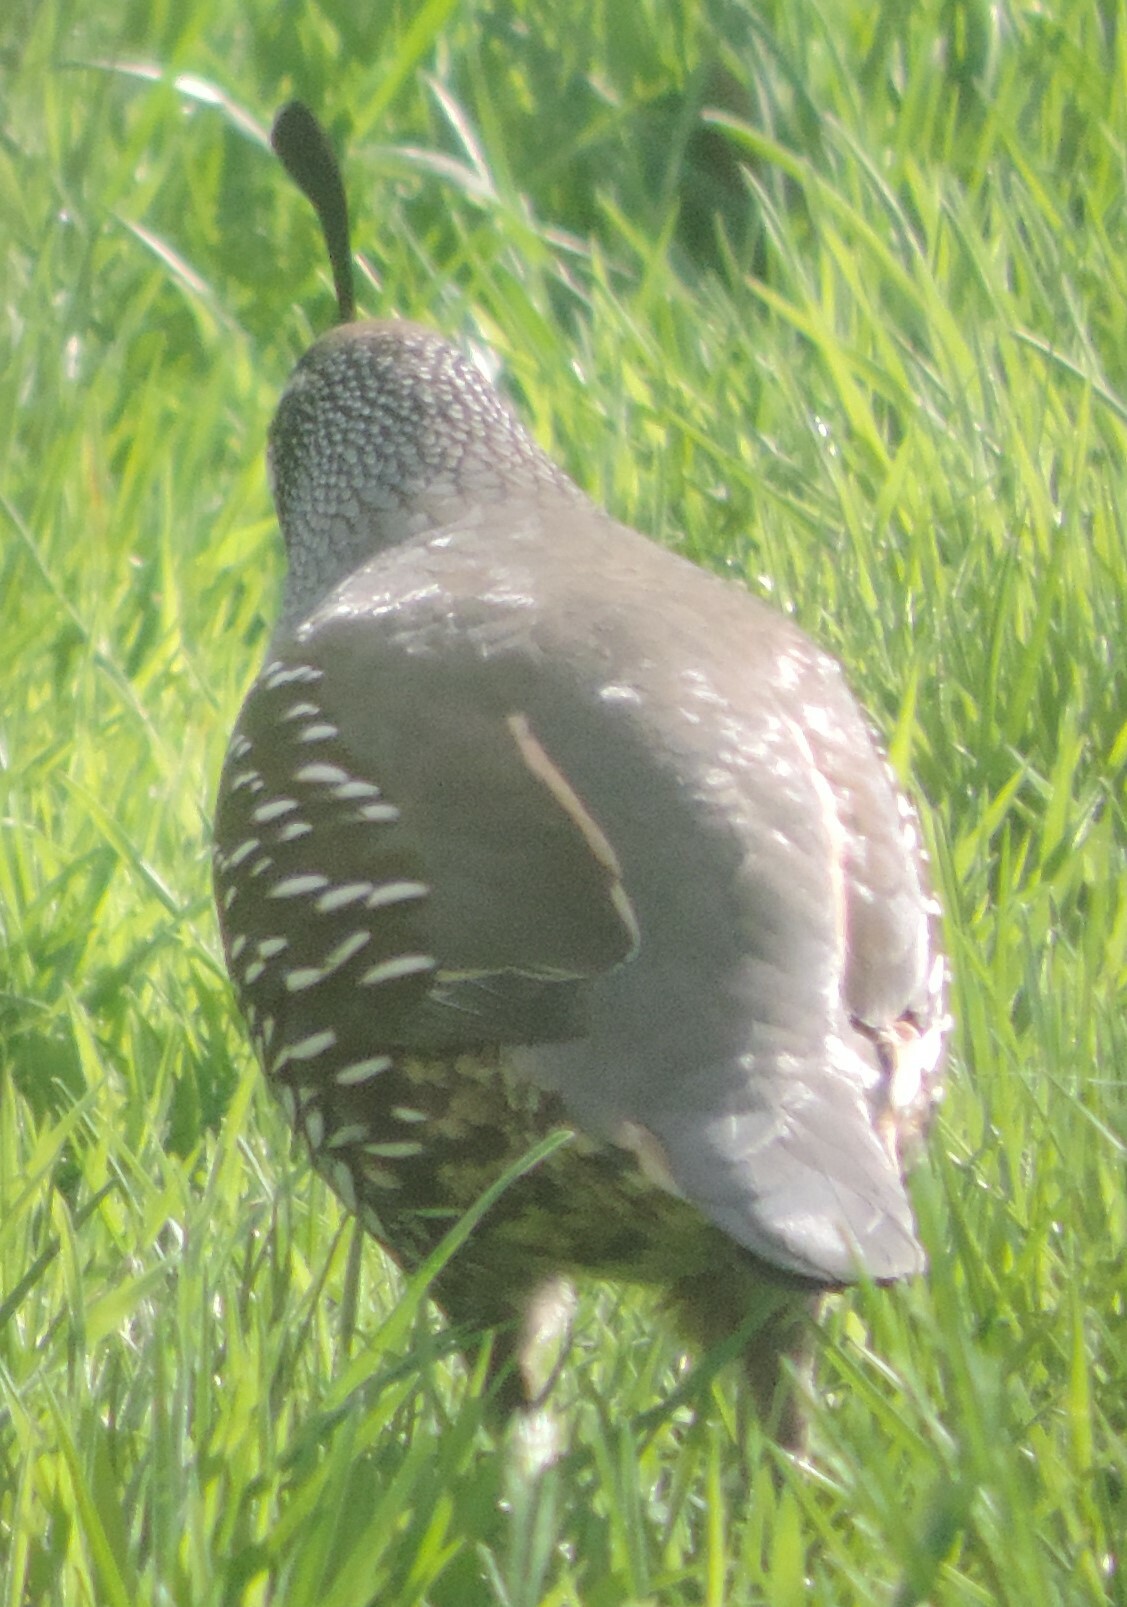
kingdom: Animalia
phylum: Chordata
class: Aves
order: Galliformes
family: Odontophoridae
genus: Callipepla
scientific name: Callipepla californica
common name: California quail
